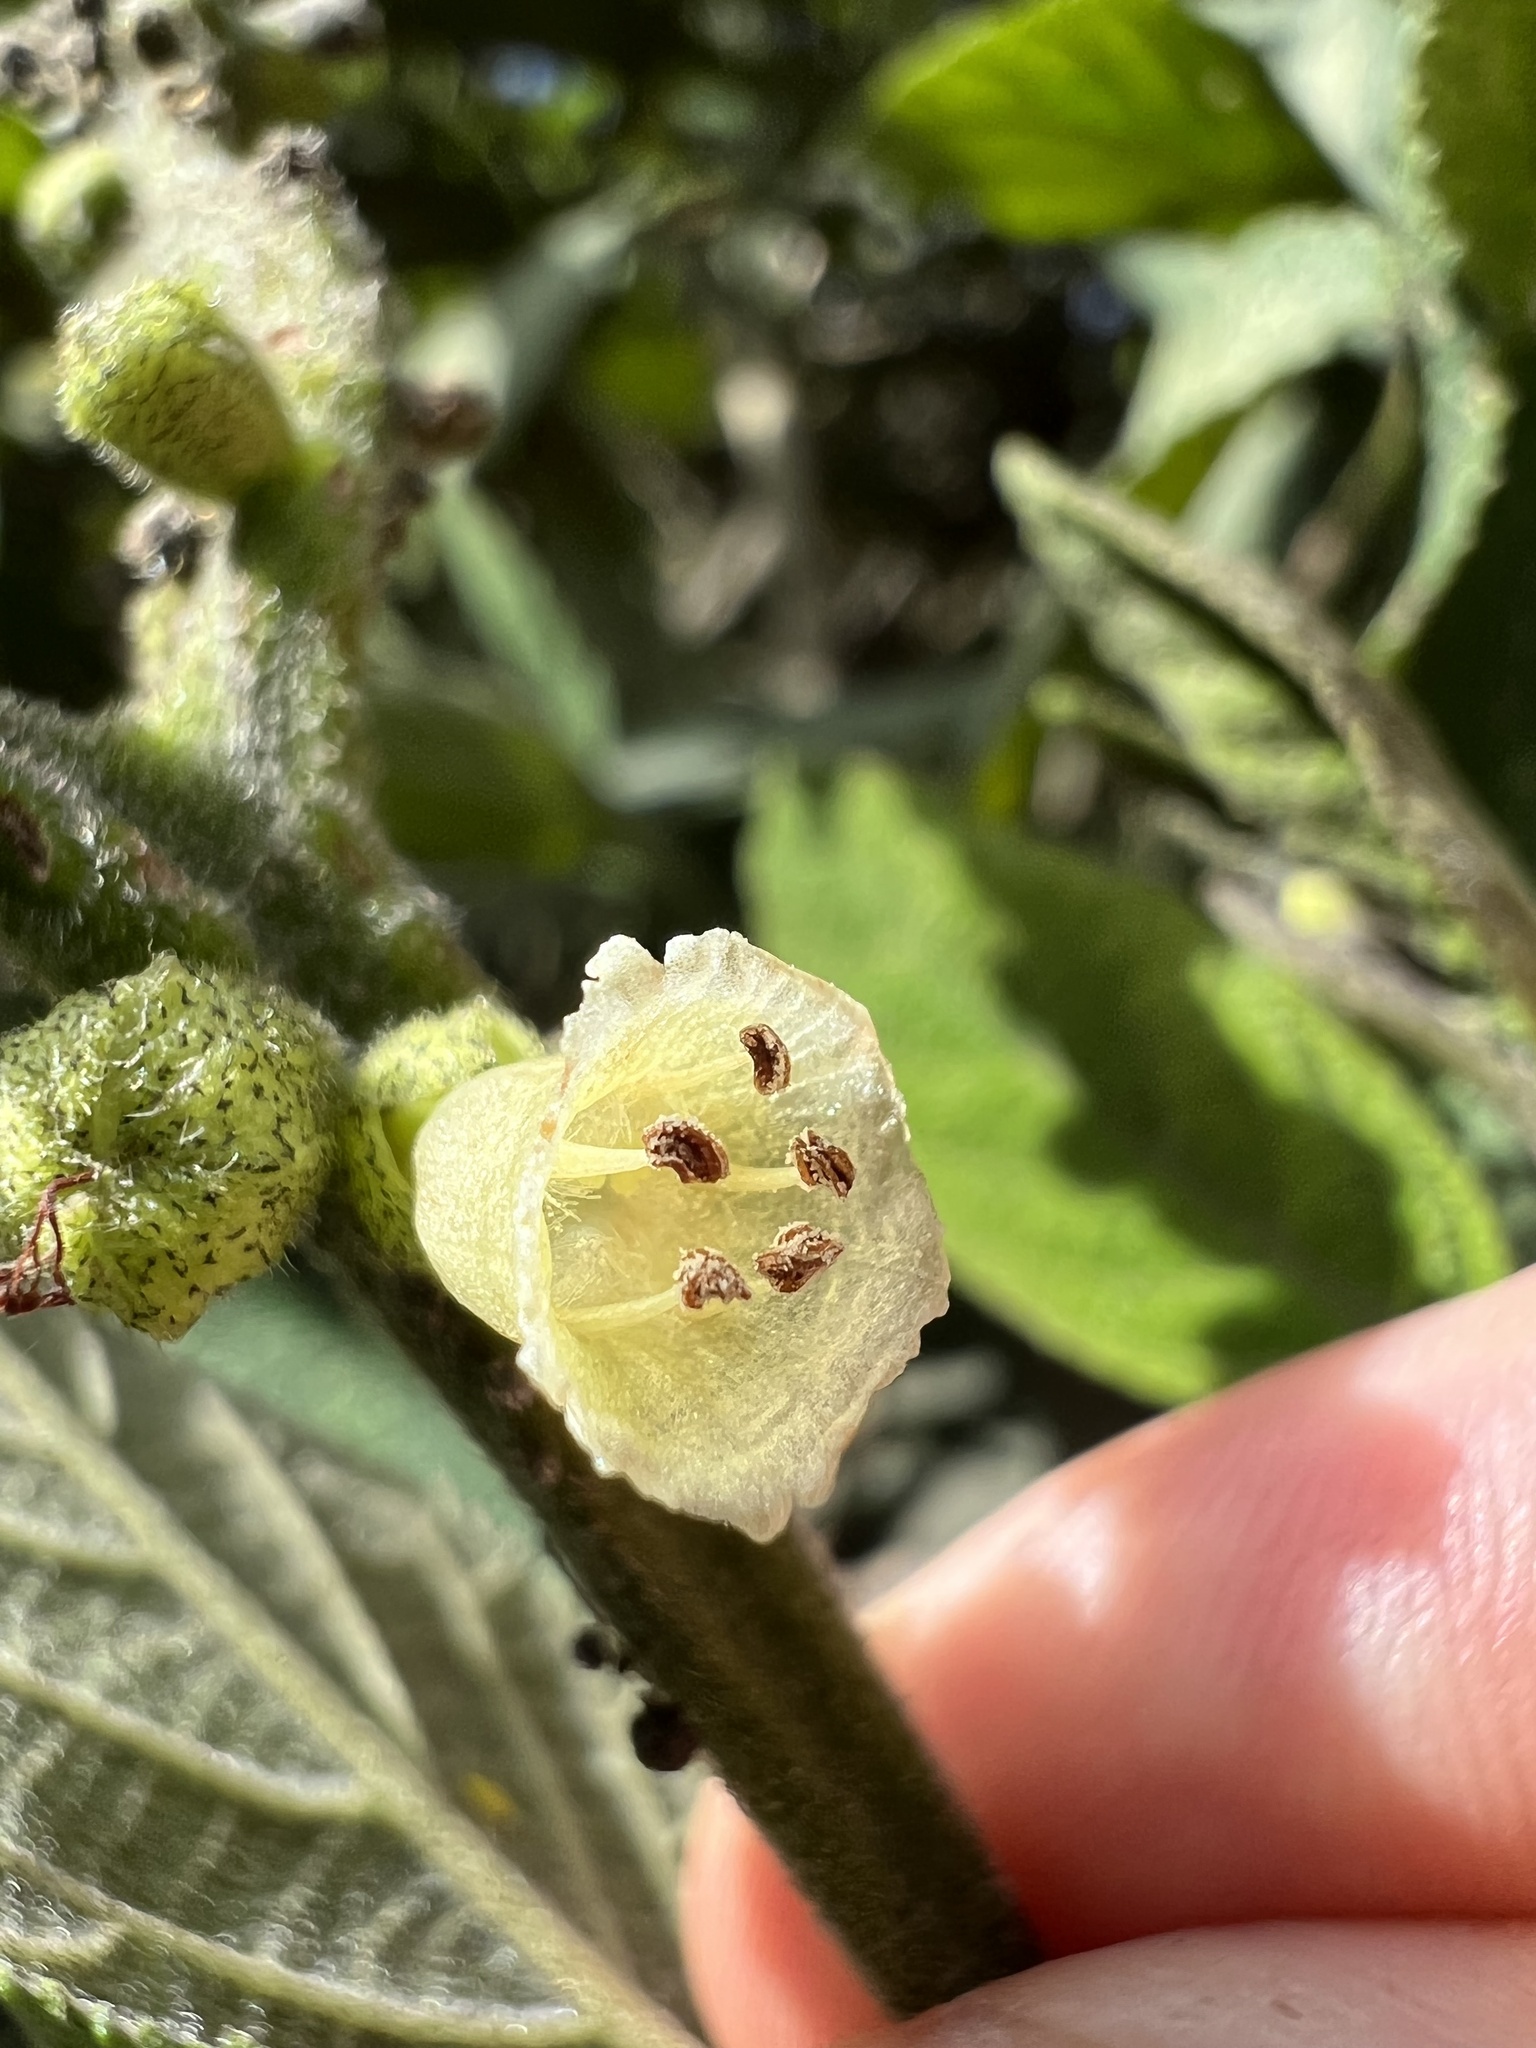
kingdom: Plantae
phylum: Tracheophyta
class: Magnoliopsida
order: Boraginales
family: Cordiaceae
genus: Varronia
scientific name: Varronia cylindrostachya
